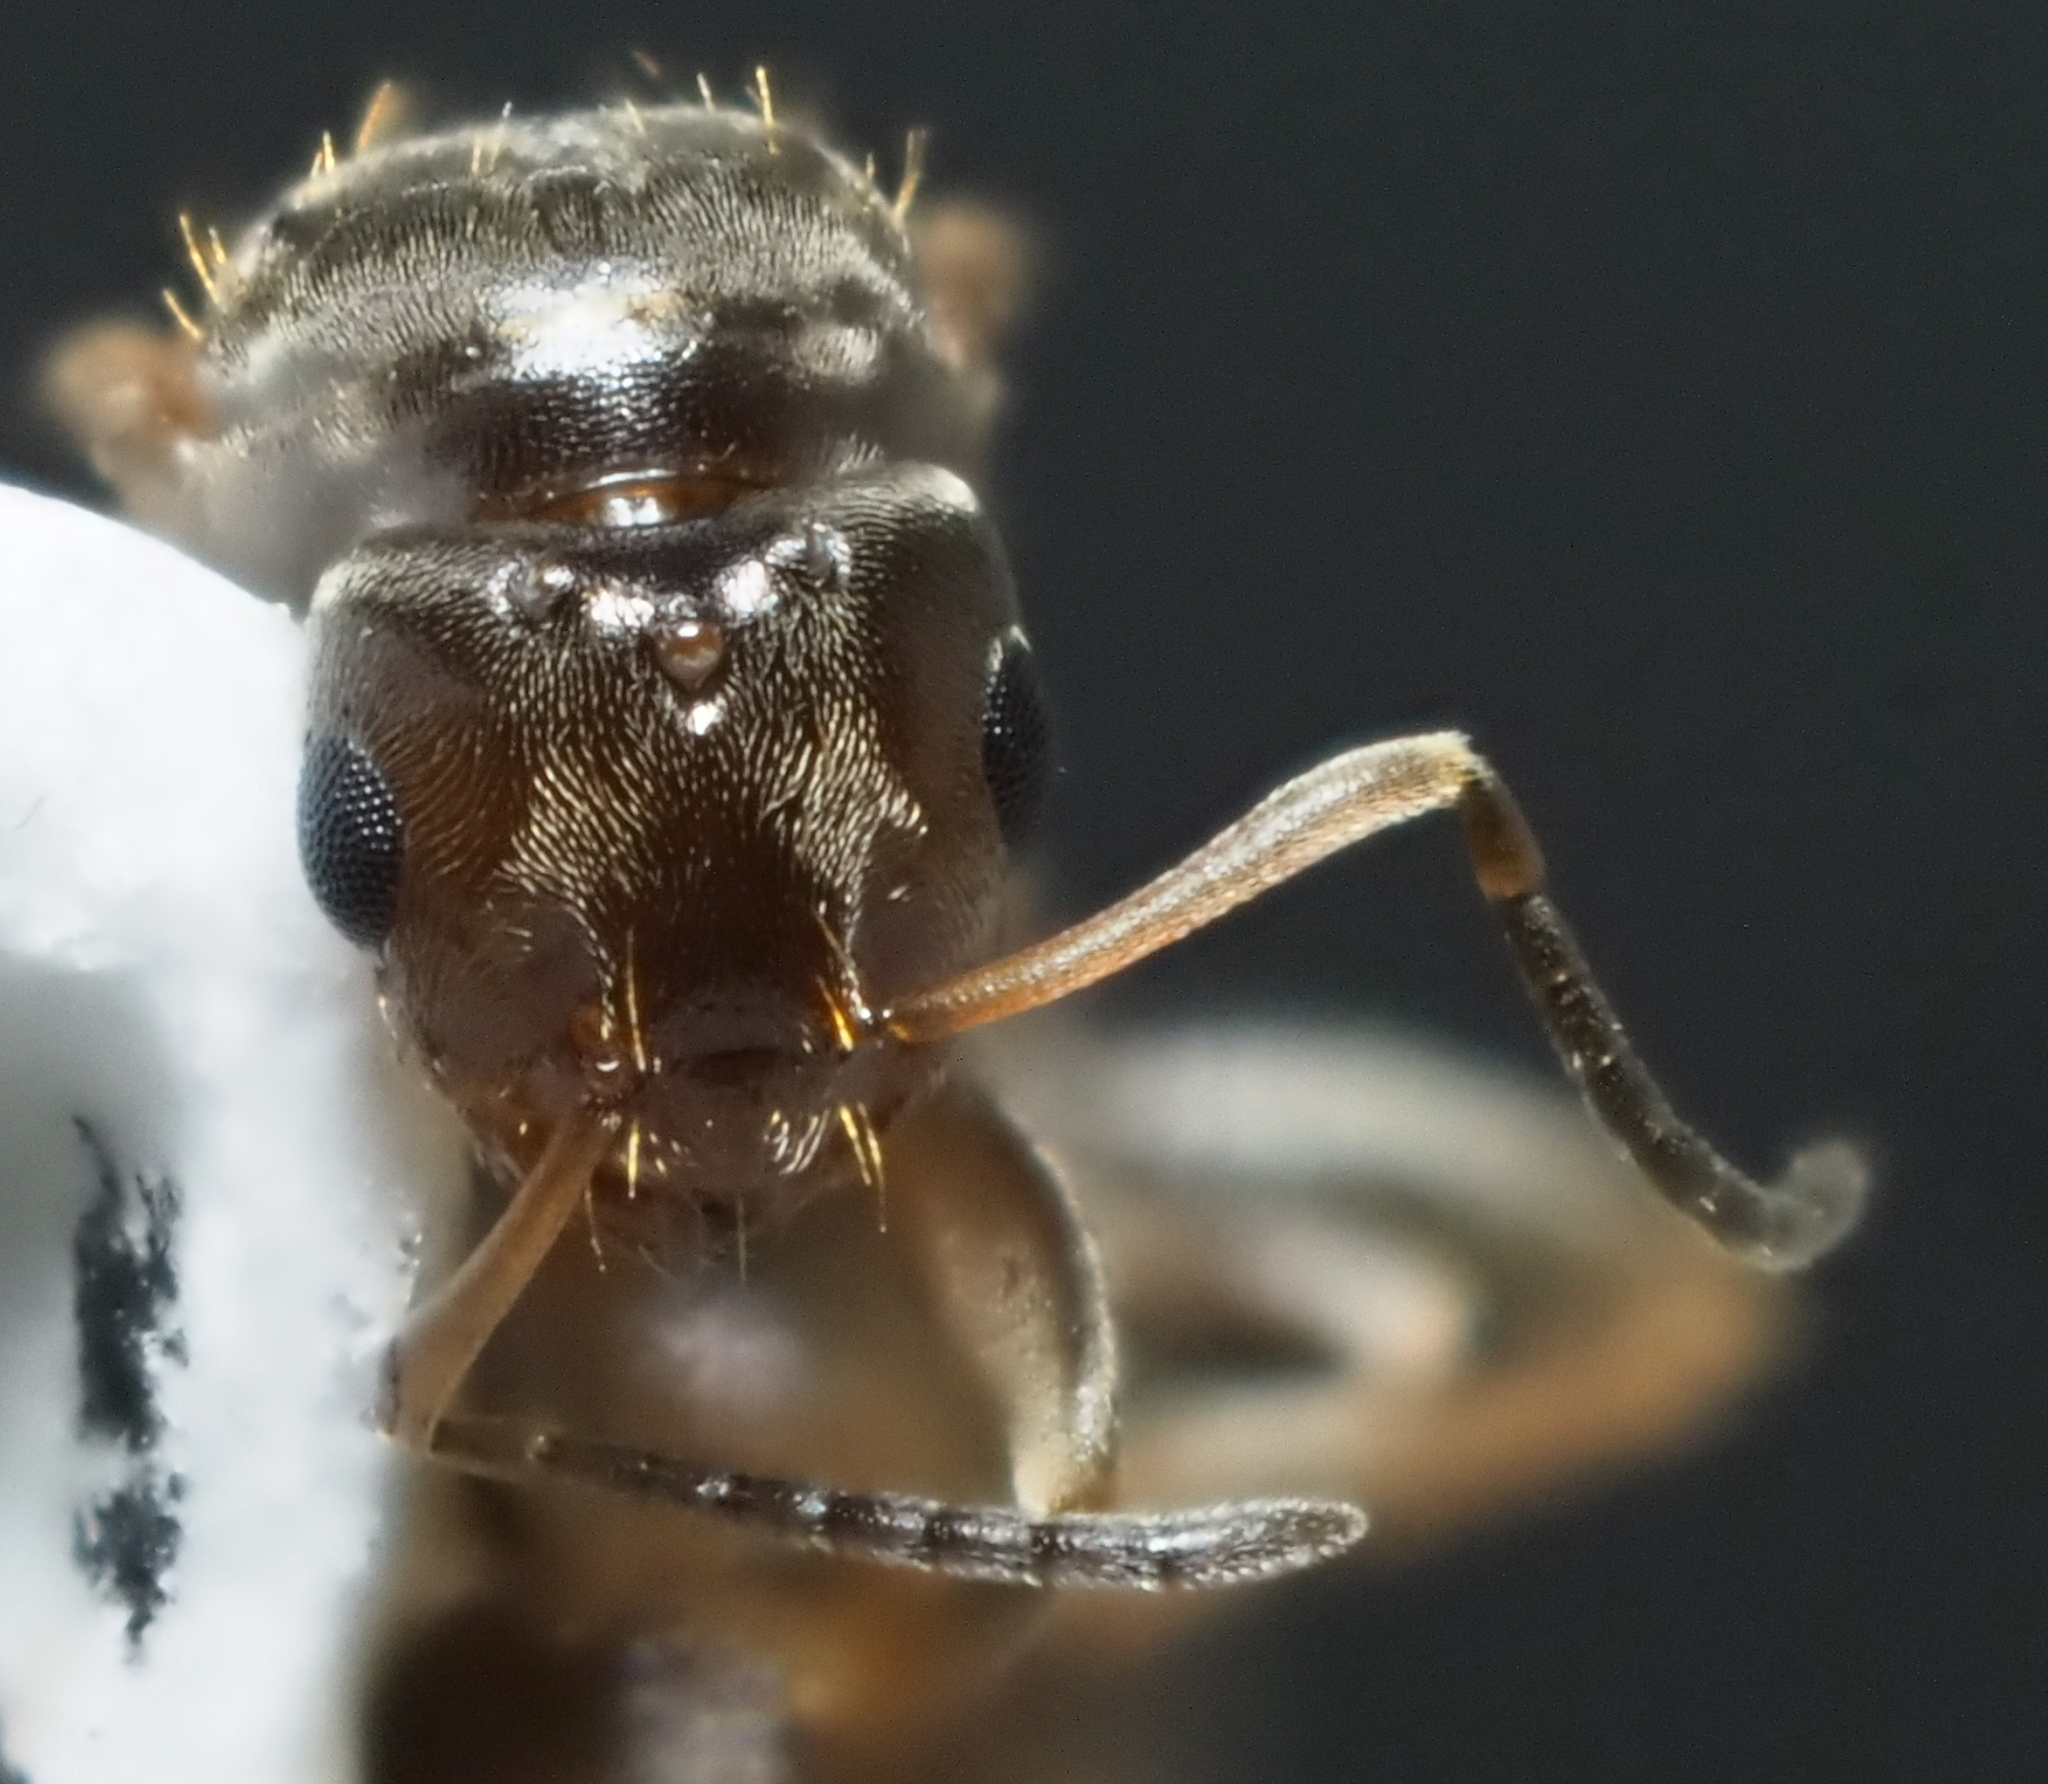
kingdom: Animalia
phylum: Arthropoda
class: Insecta
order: Hymenoptera
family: Formicidae
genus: Brachymyrmex
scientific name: Brachymyrmex patagonicus
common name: Dark rover ant
